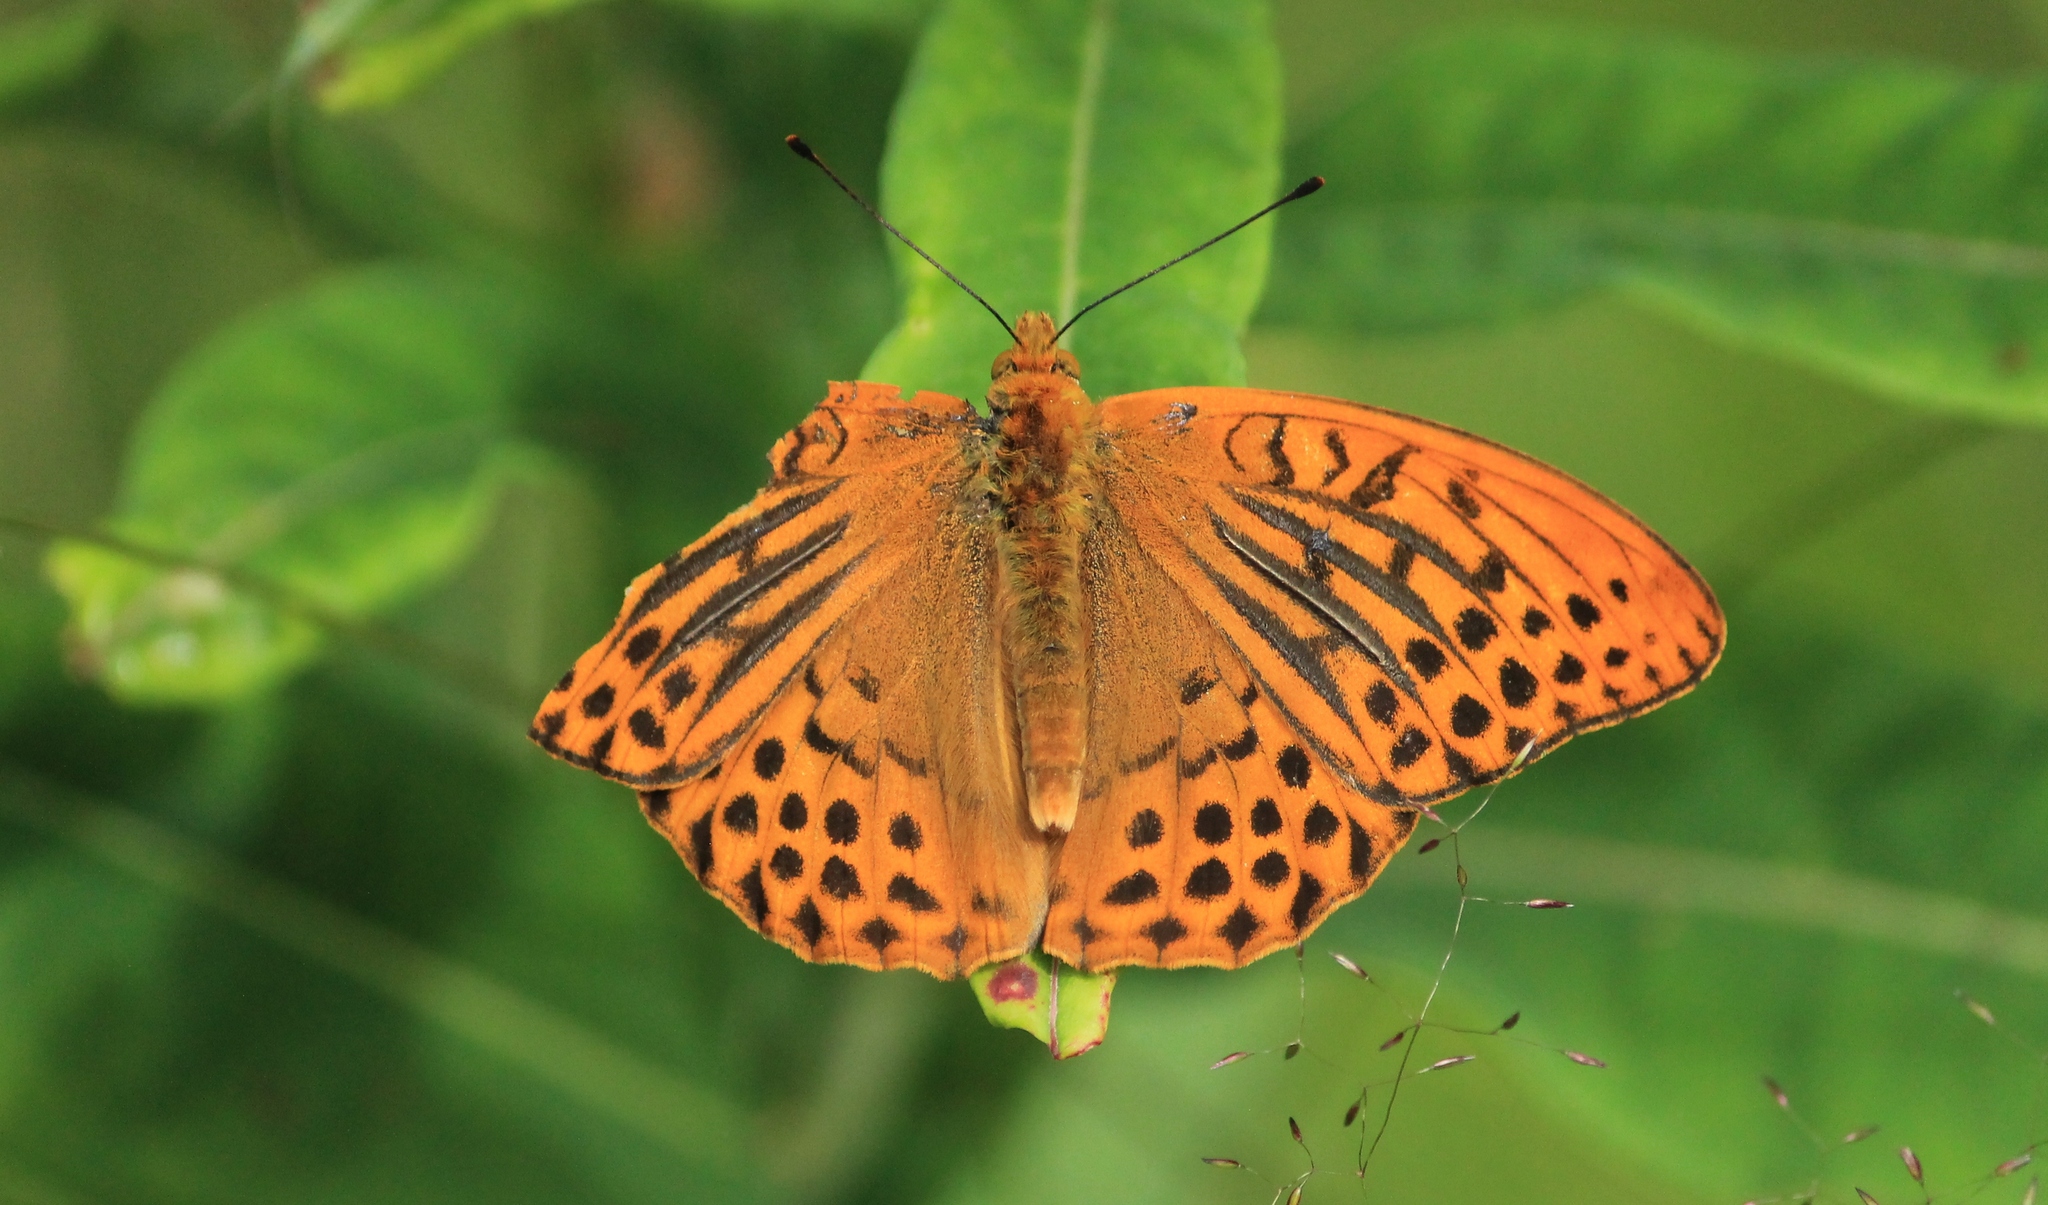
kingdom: Animalia
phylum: Arthropoda
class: Insecta
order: Lepidoptera
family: Nymphalidae
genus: Argynnis
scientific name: Argynnis paphia
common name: Silver-washed fritillary
